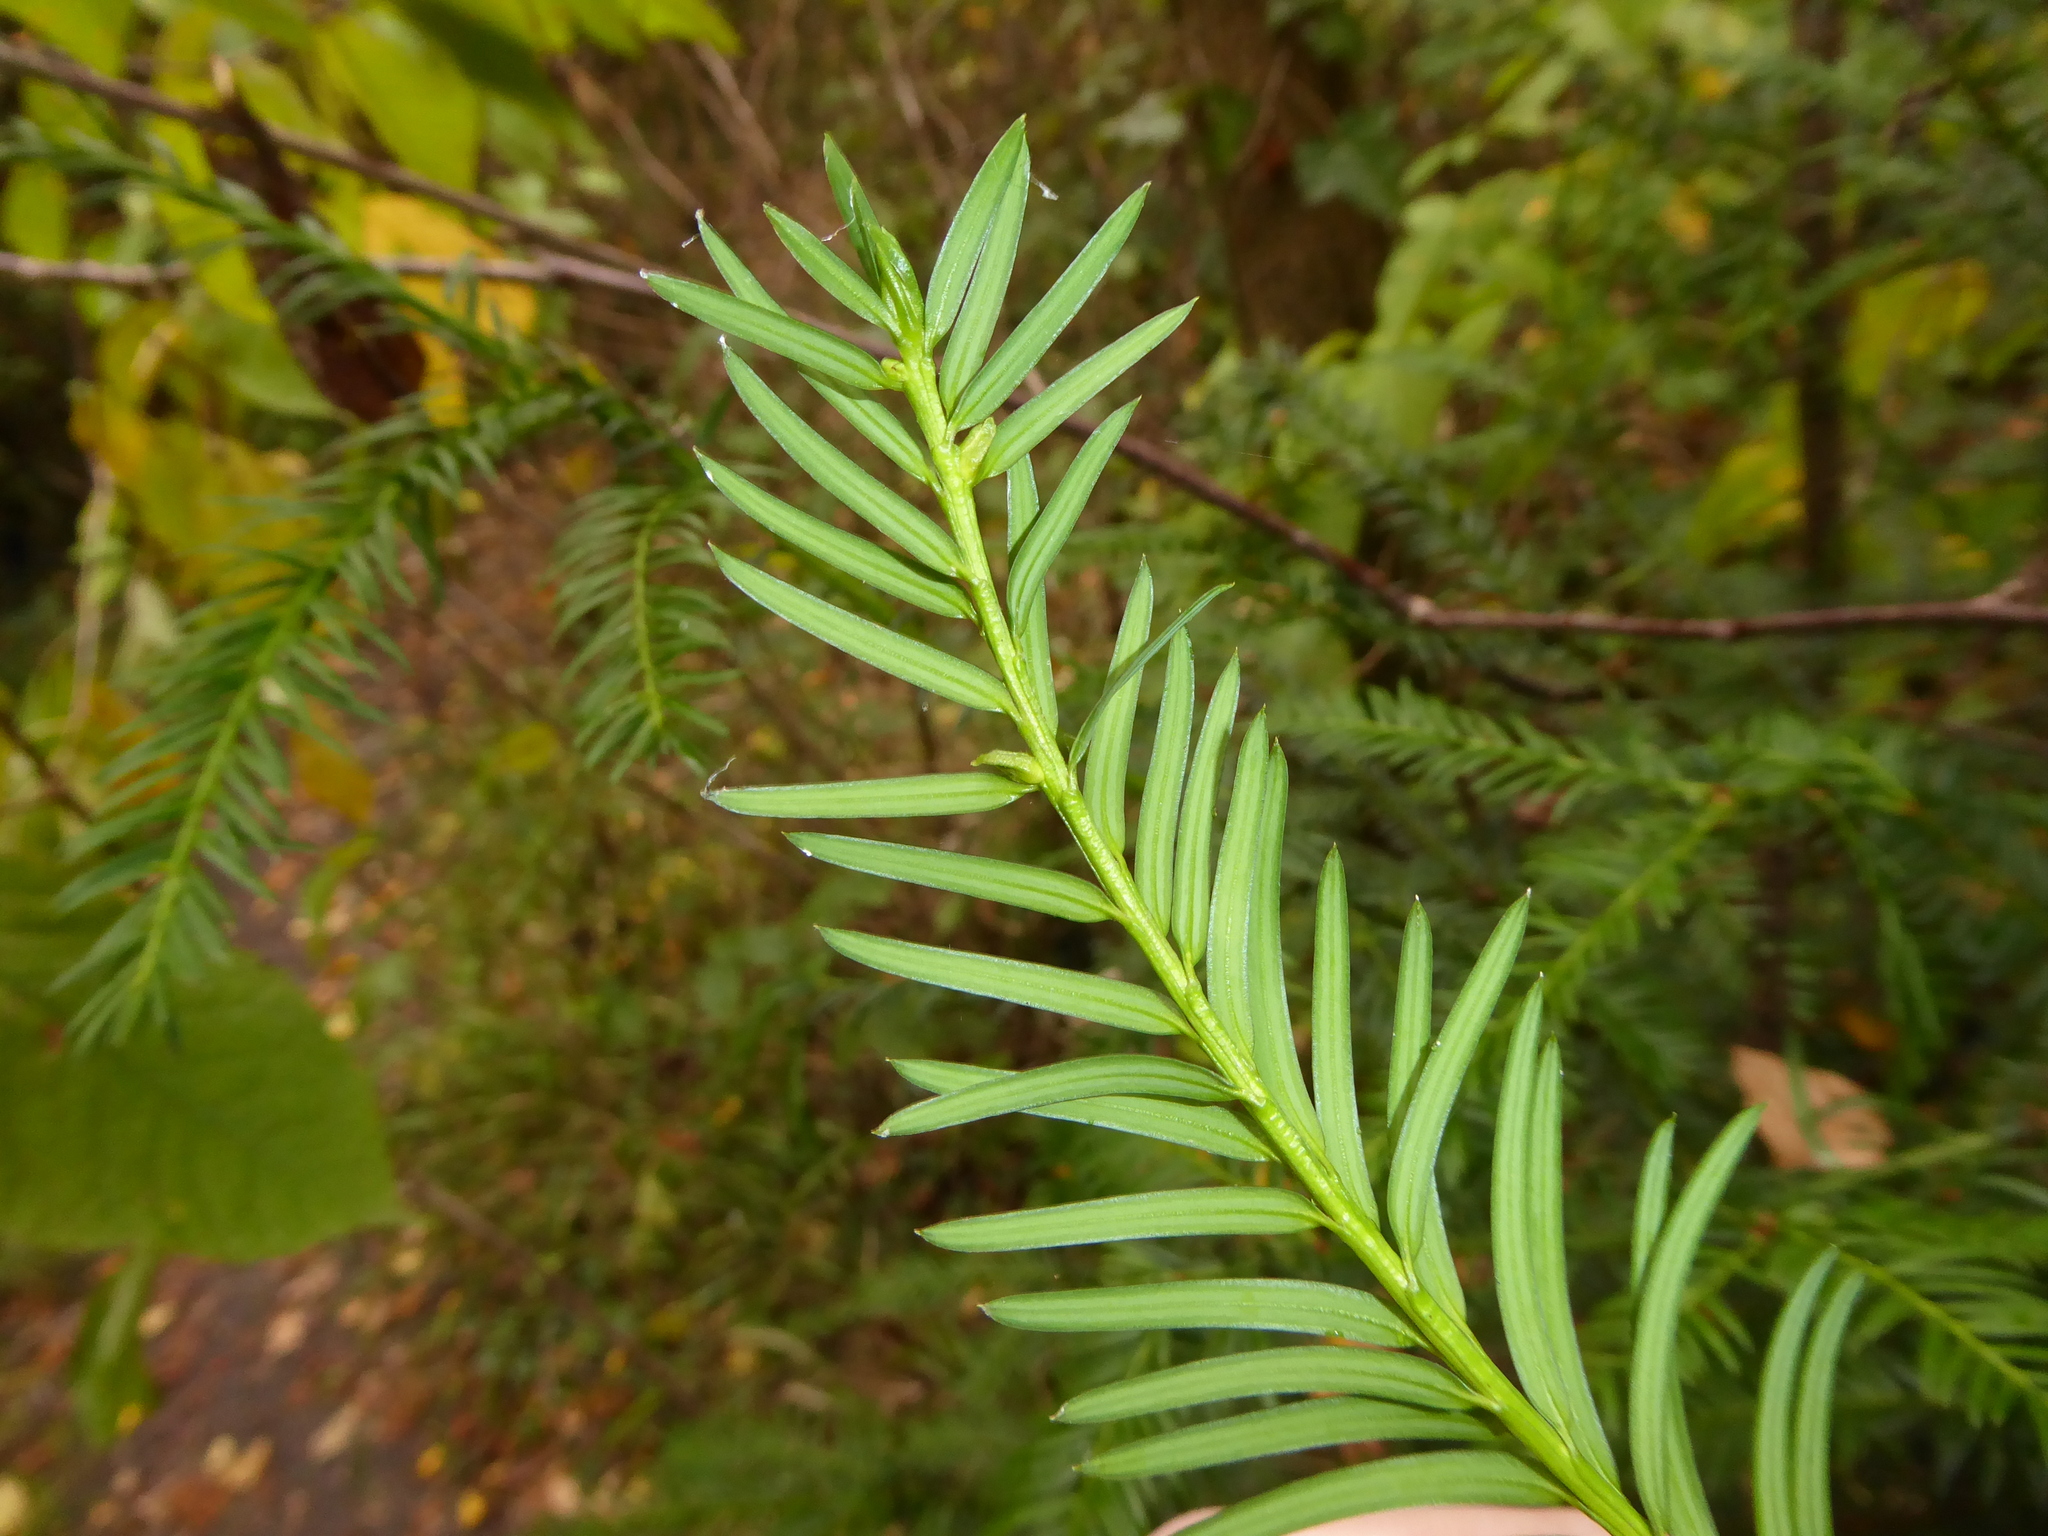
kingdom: Plantae
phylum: Tracheophyta
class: Pinopsida
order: Pinales
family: Taxaceae
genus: Taxus
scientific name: Taxus baccata
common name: Yew
